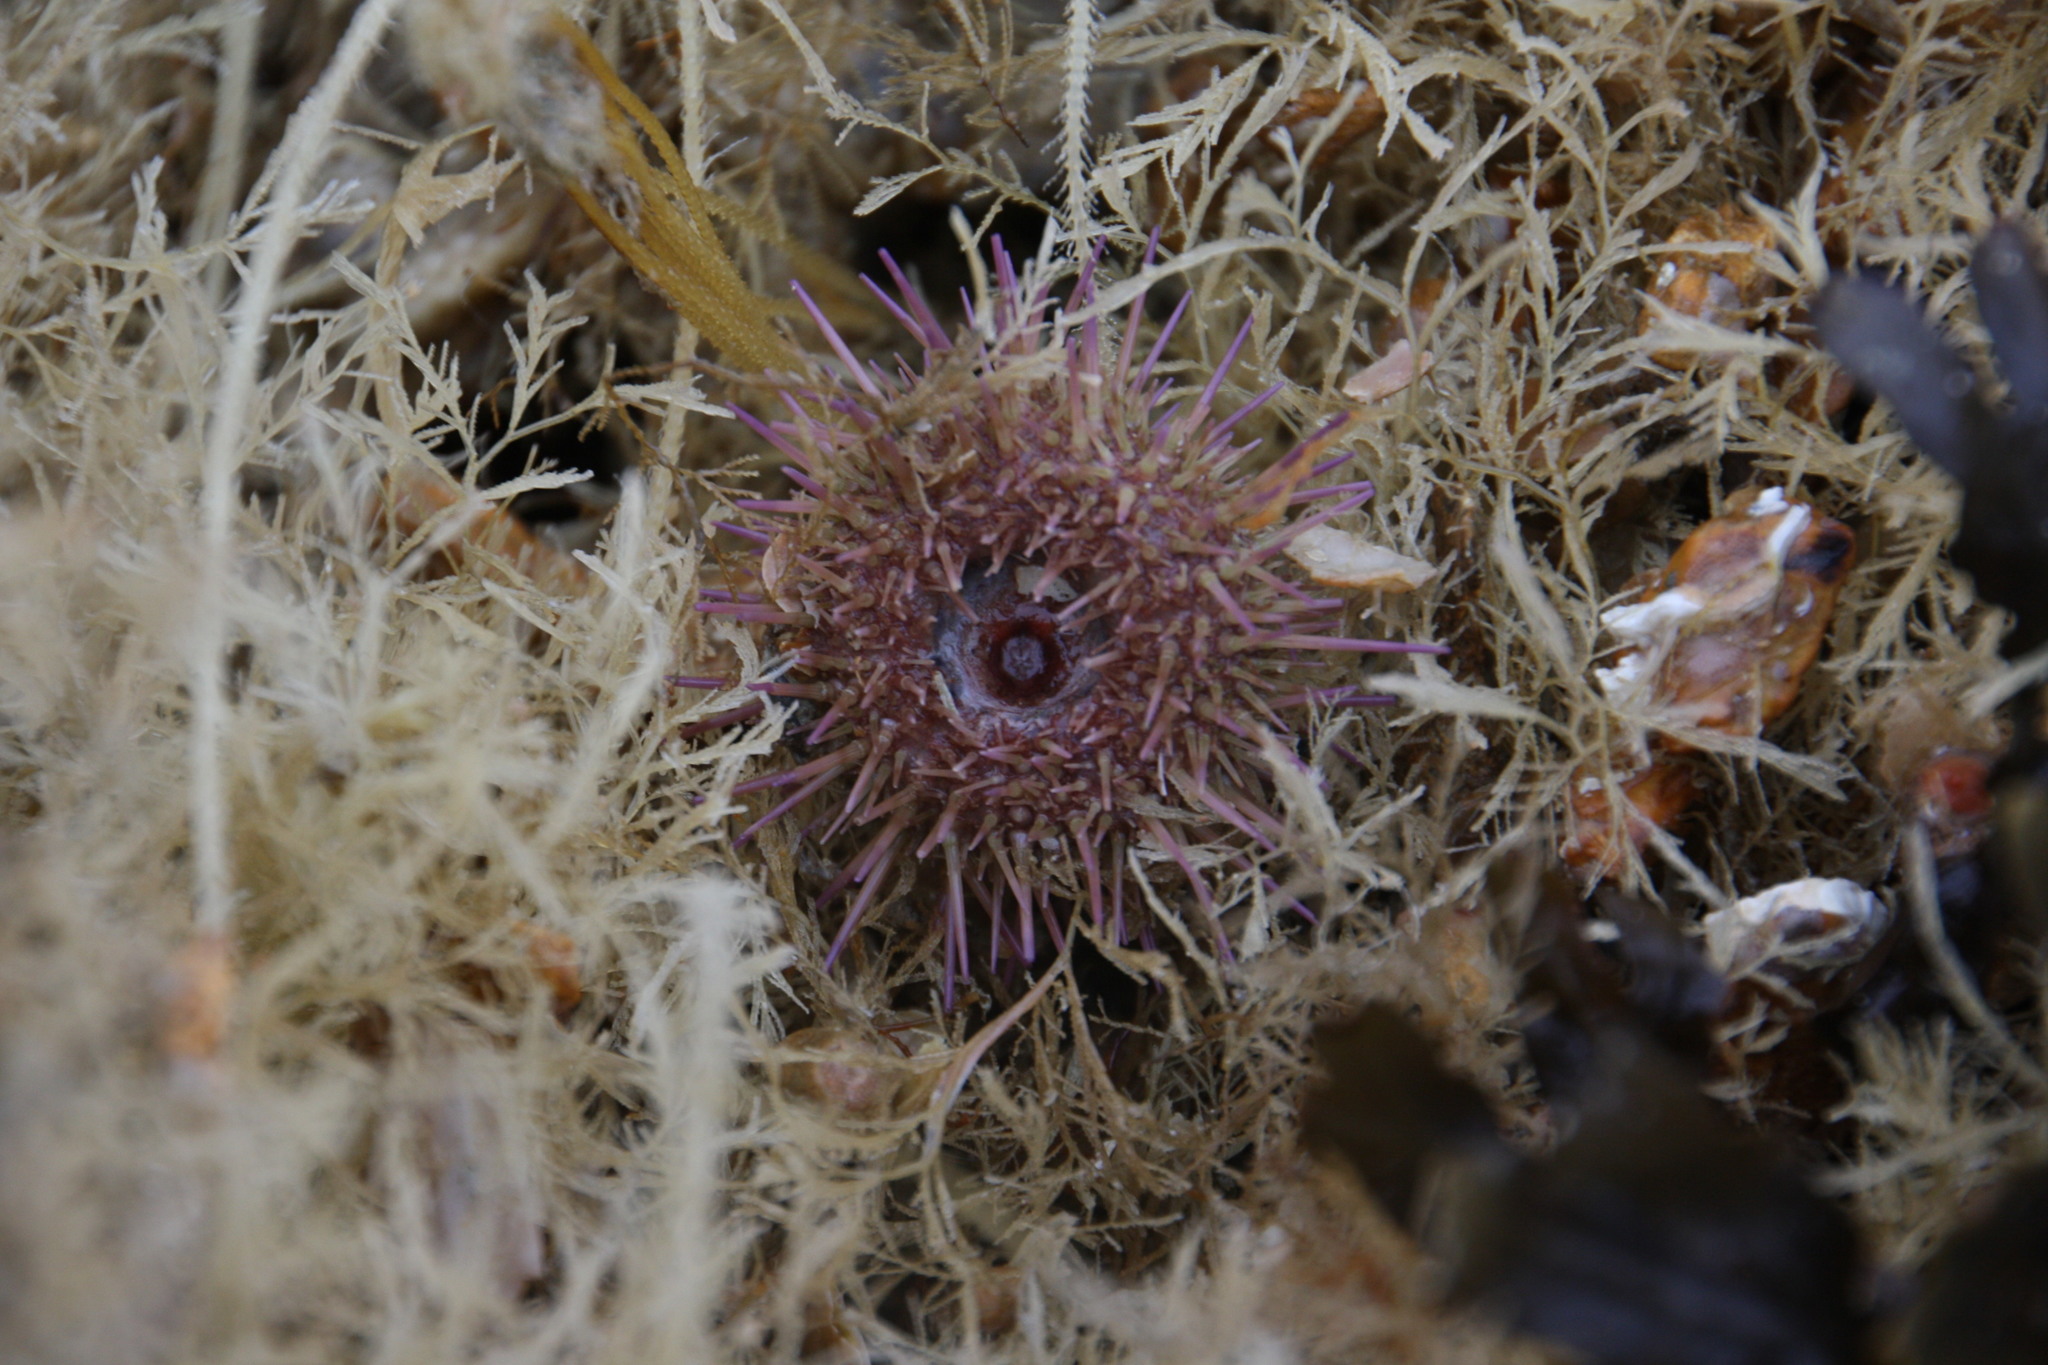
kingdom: Animalia
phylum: Echinodermata
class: Echinoidea
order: Camarodonta
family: Parechinidae
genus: Psammechinus
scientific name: Psammechinus miliaris
